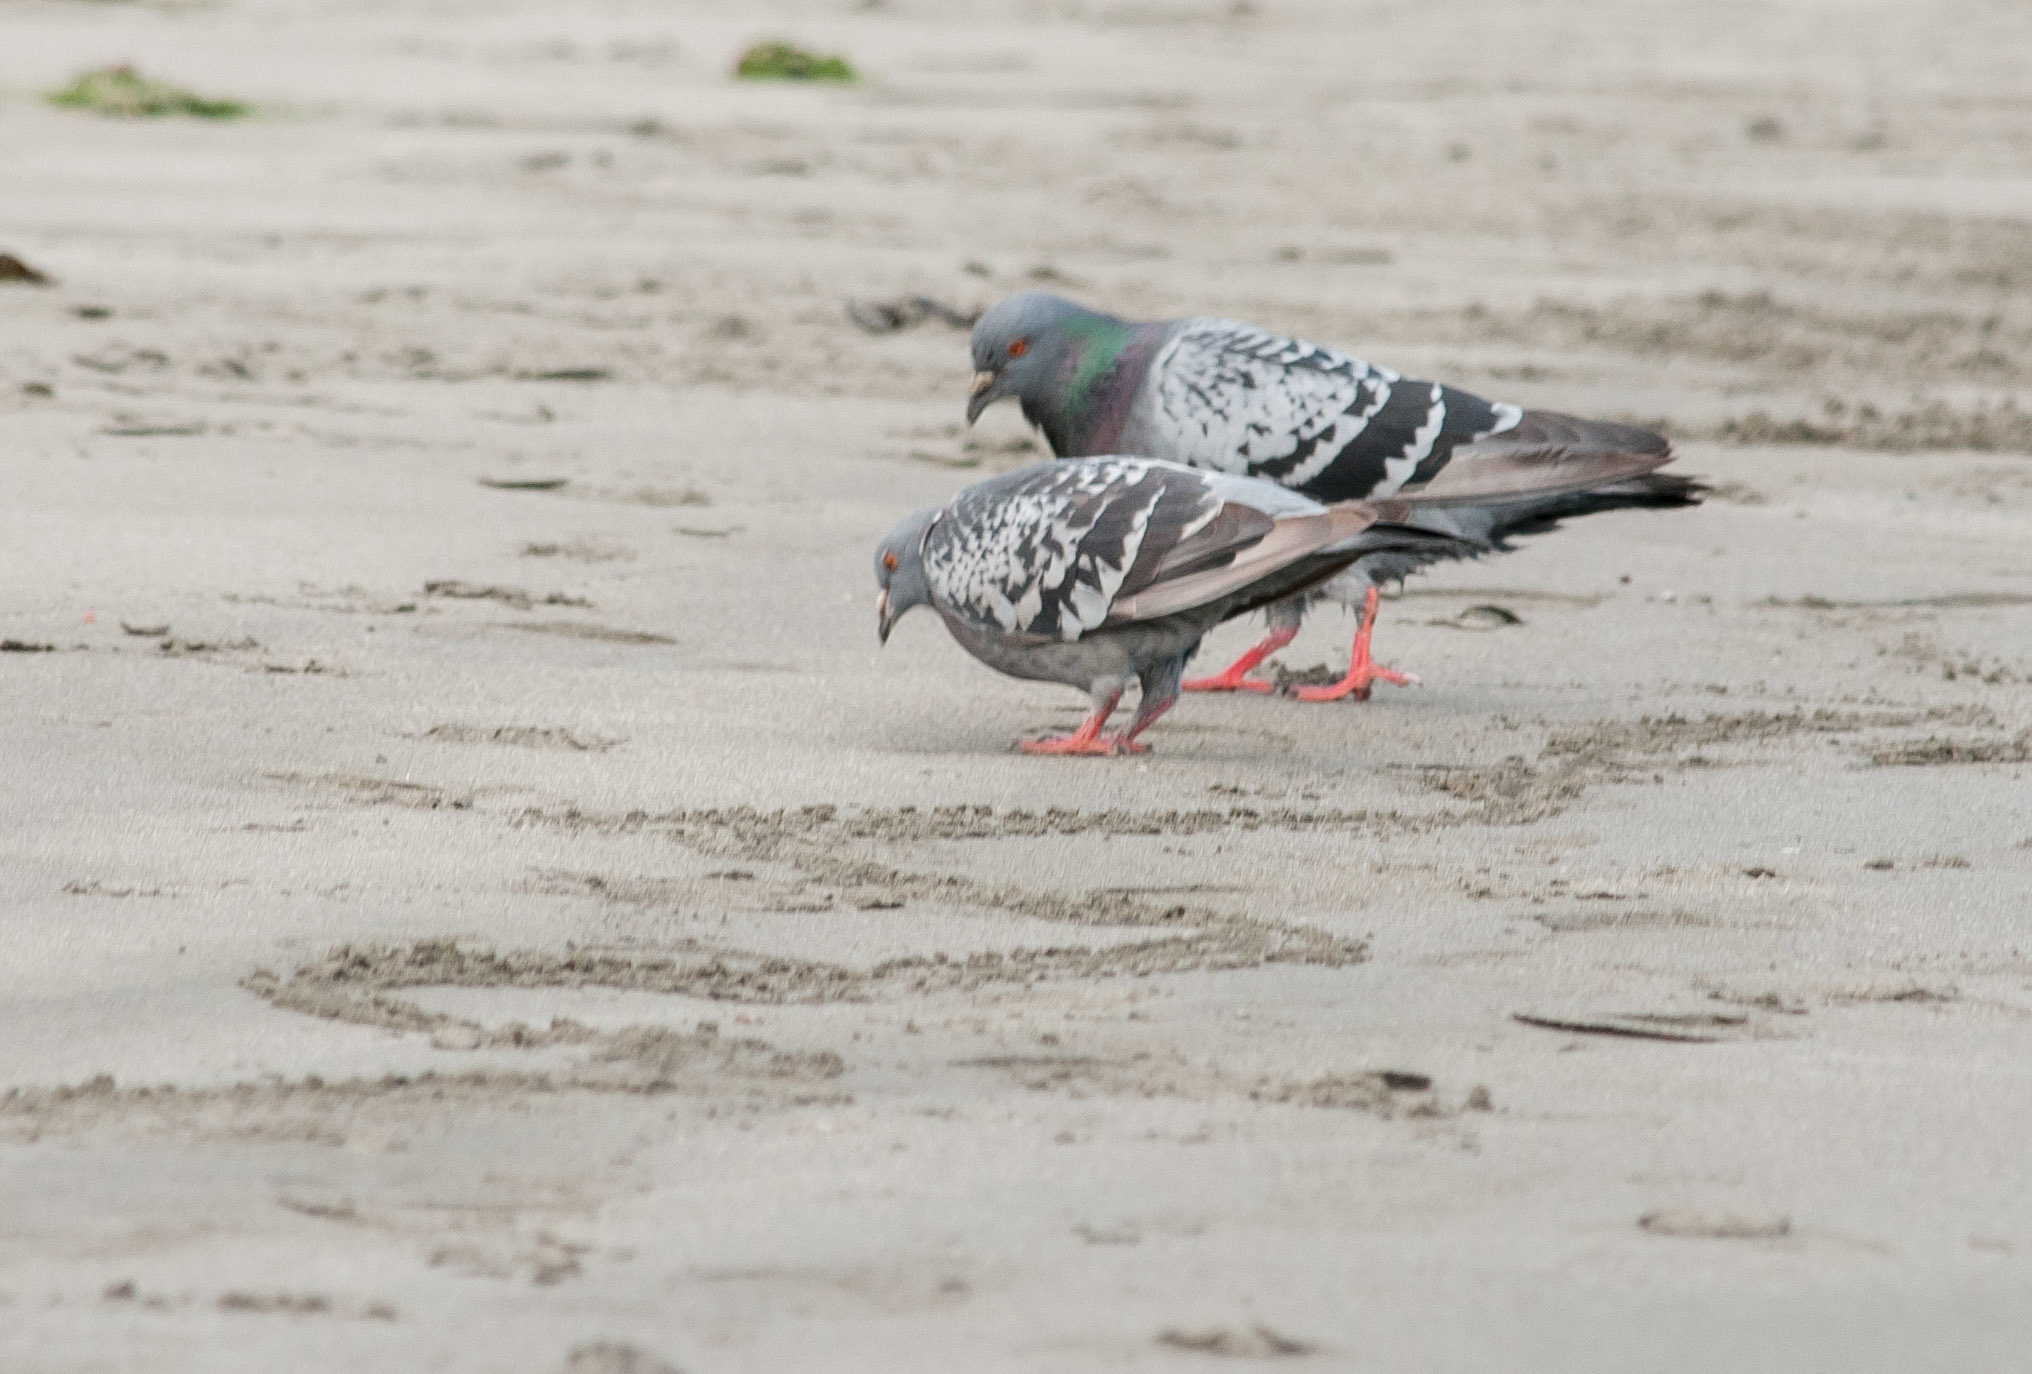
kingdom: Animalia
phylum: Chordata
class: Aves
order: Columbiformes
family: Columbidae
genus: Columba
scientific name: Columba livia
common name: Rock pigeon
